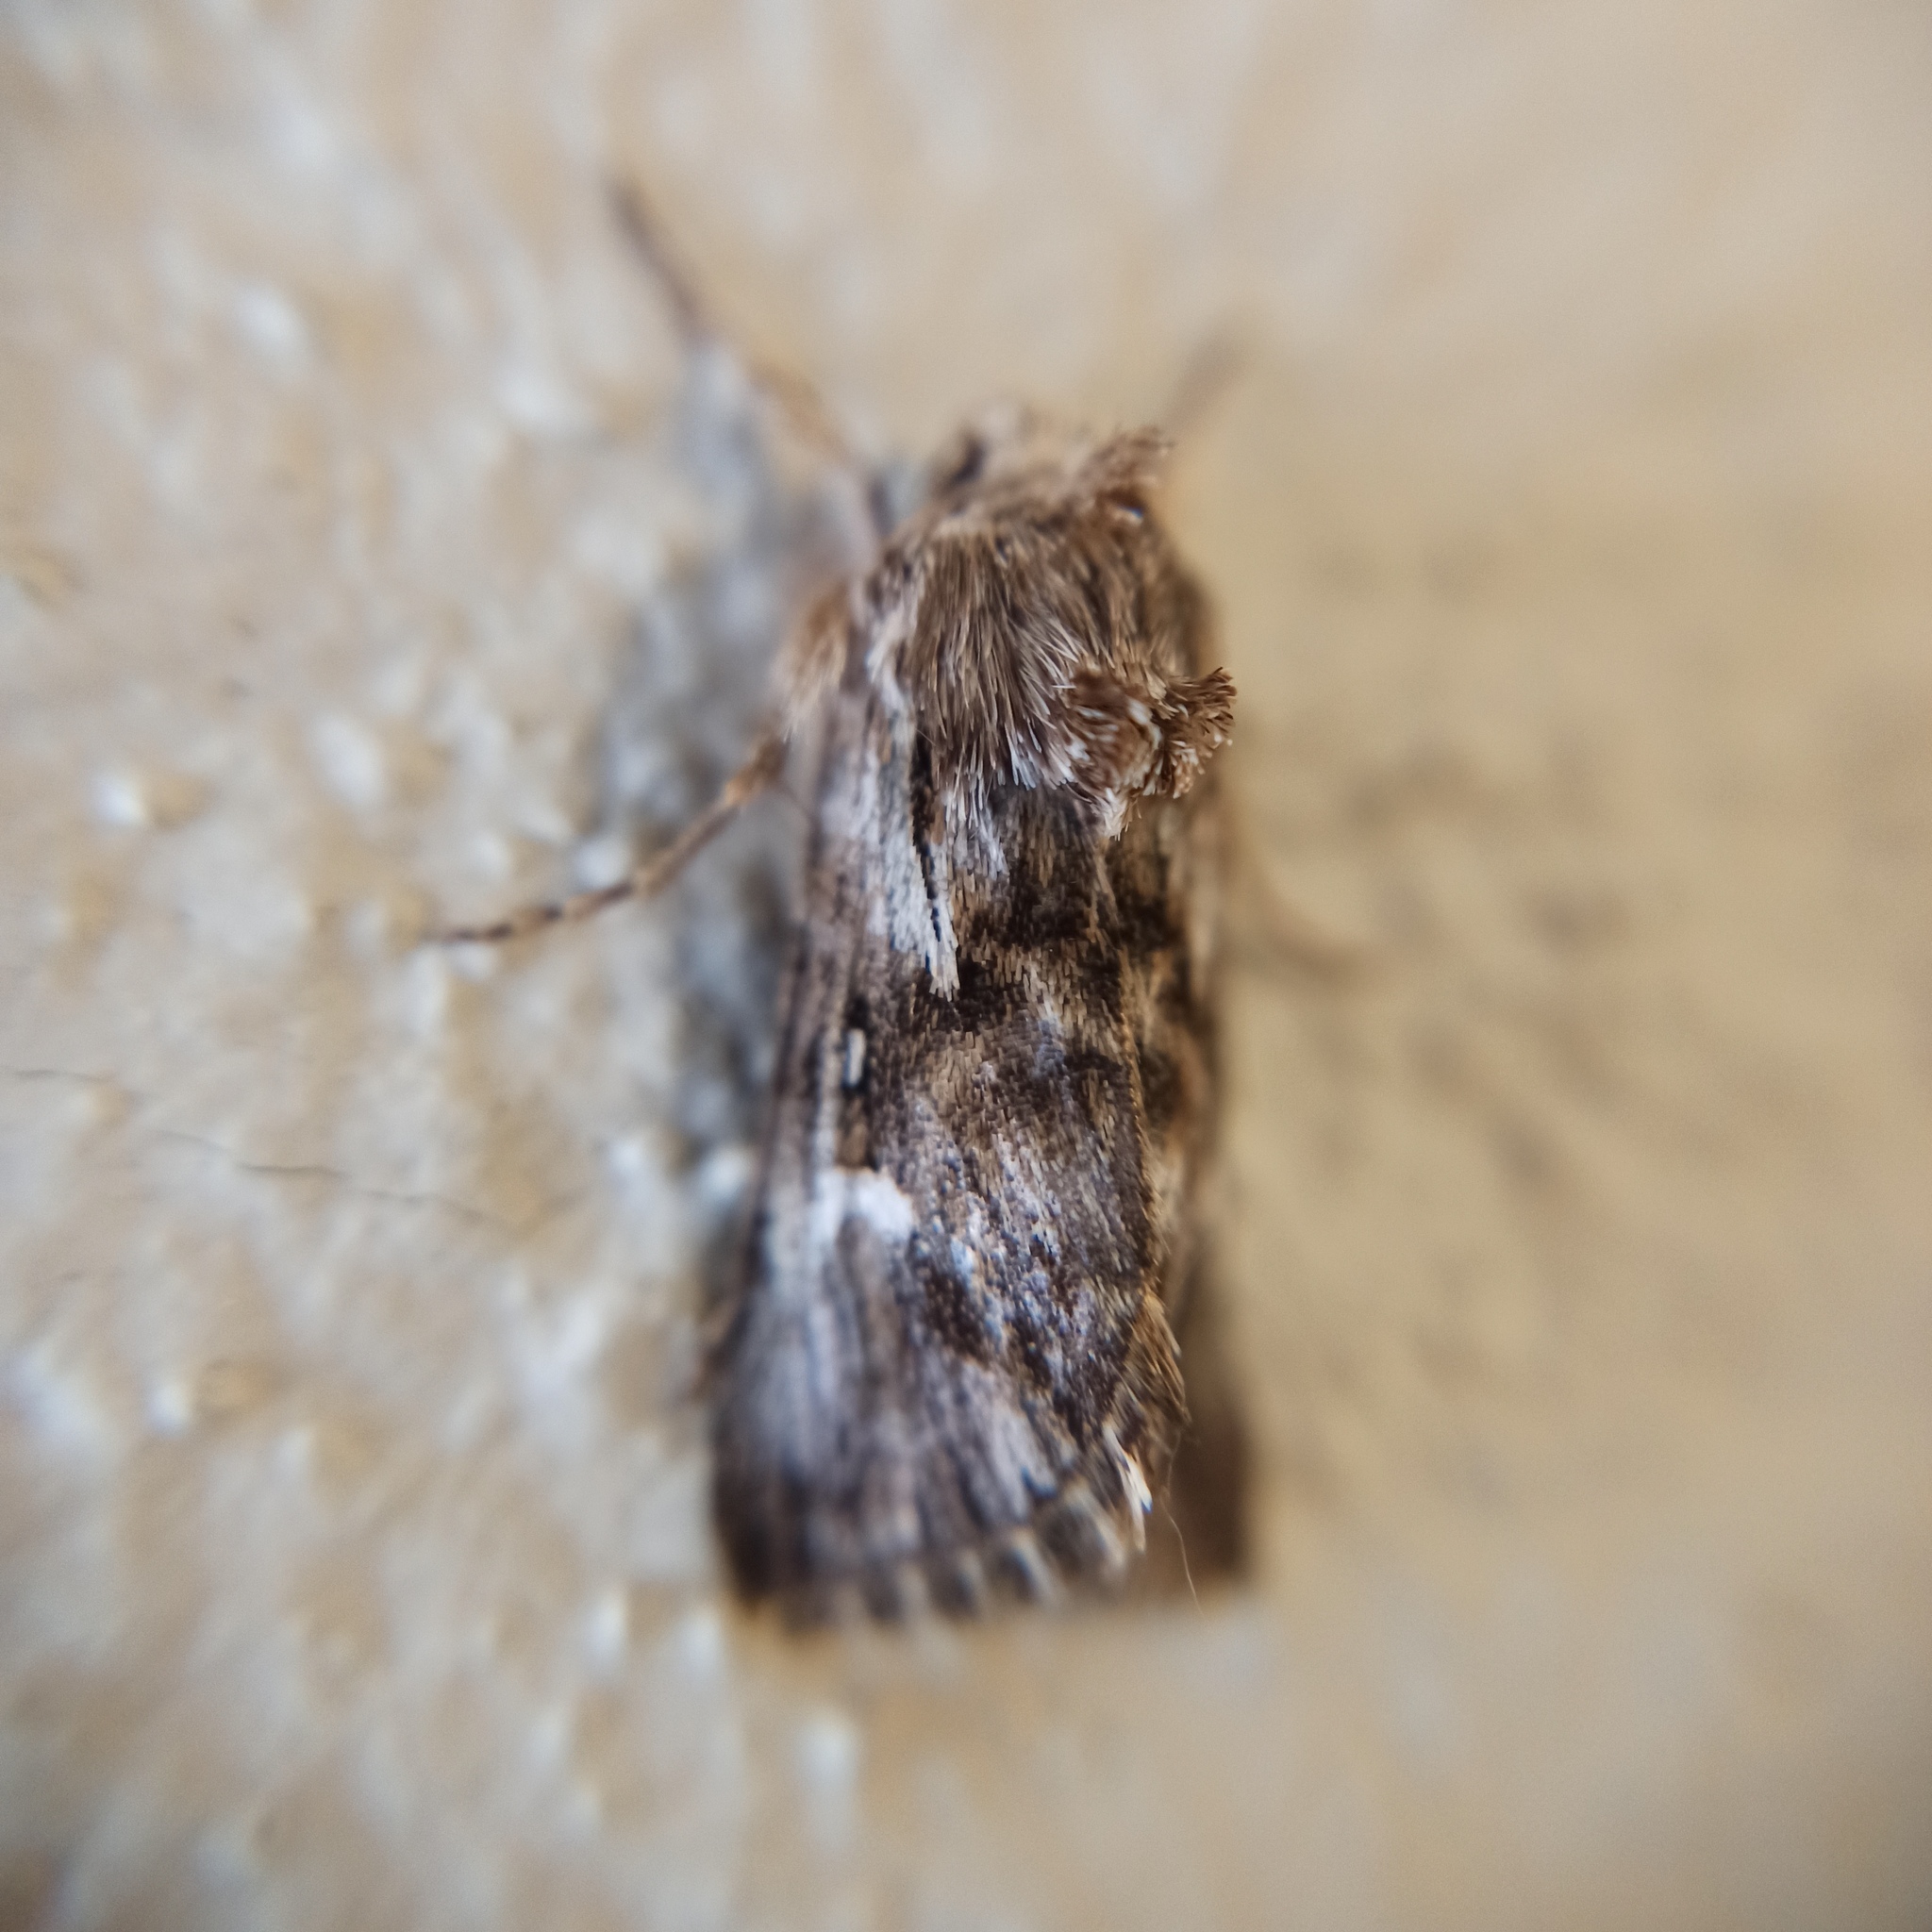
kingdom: Animalia
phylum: Arthropoda
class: Insecta
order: Lepidoptera
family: Noctuidae
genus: Calophasia
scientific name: Calophasia lunula
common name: Toadflax brocade
